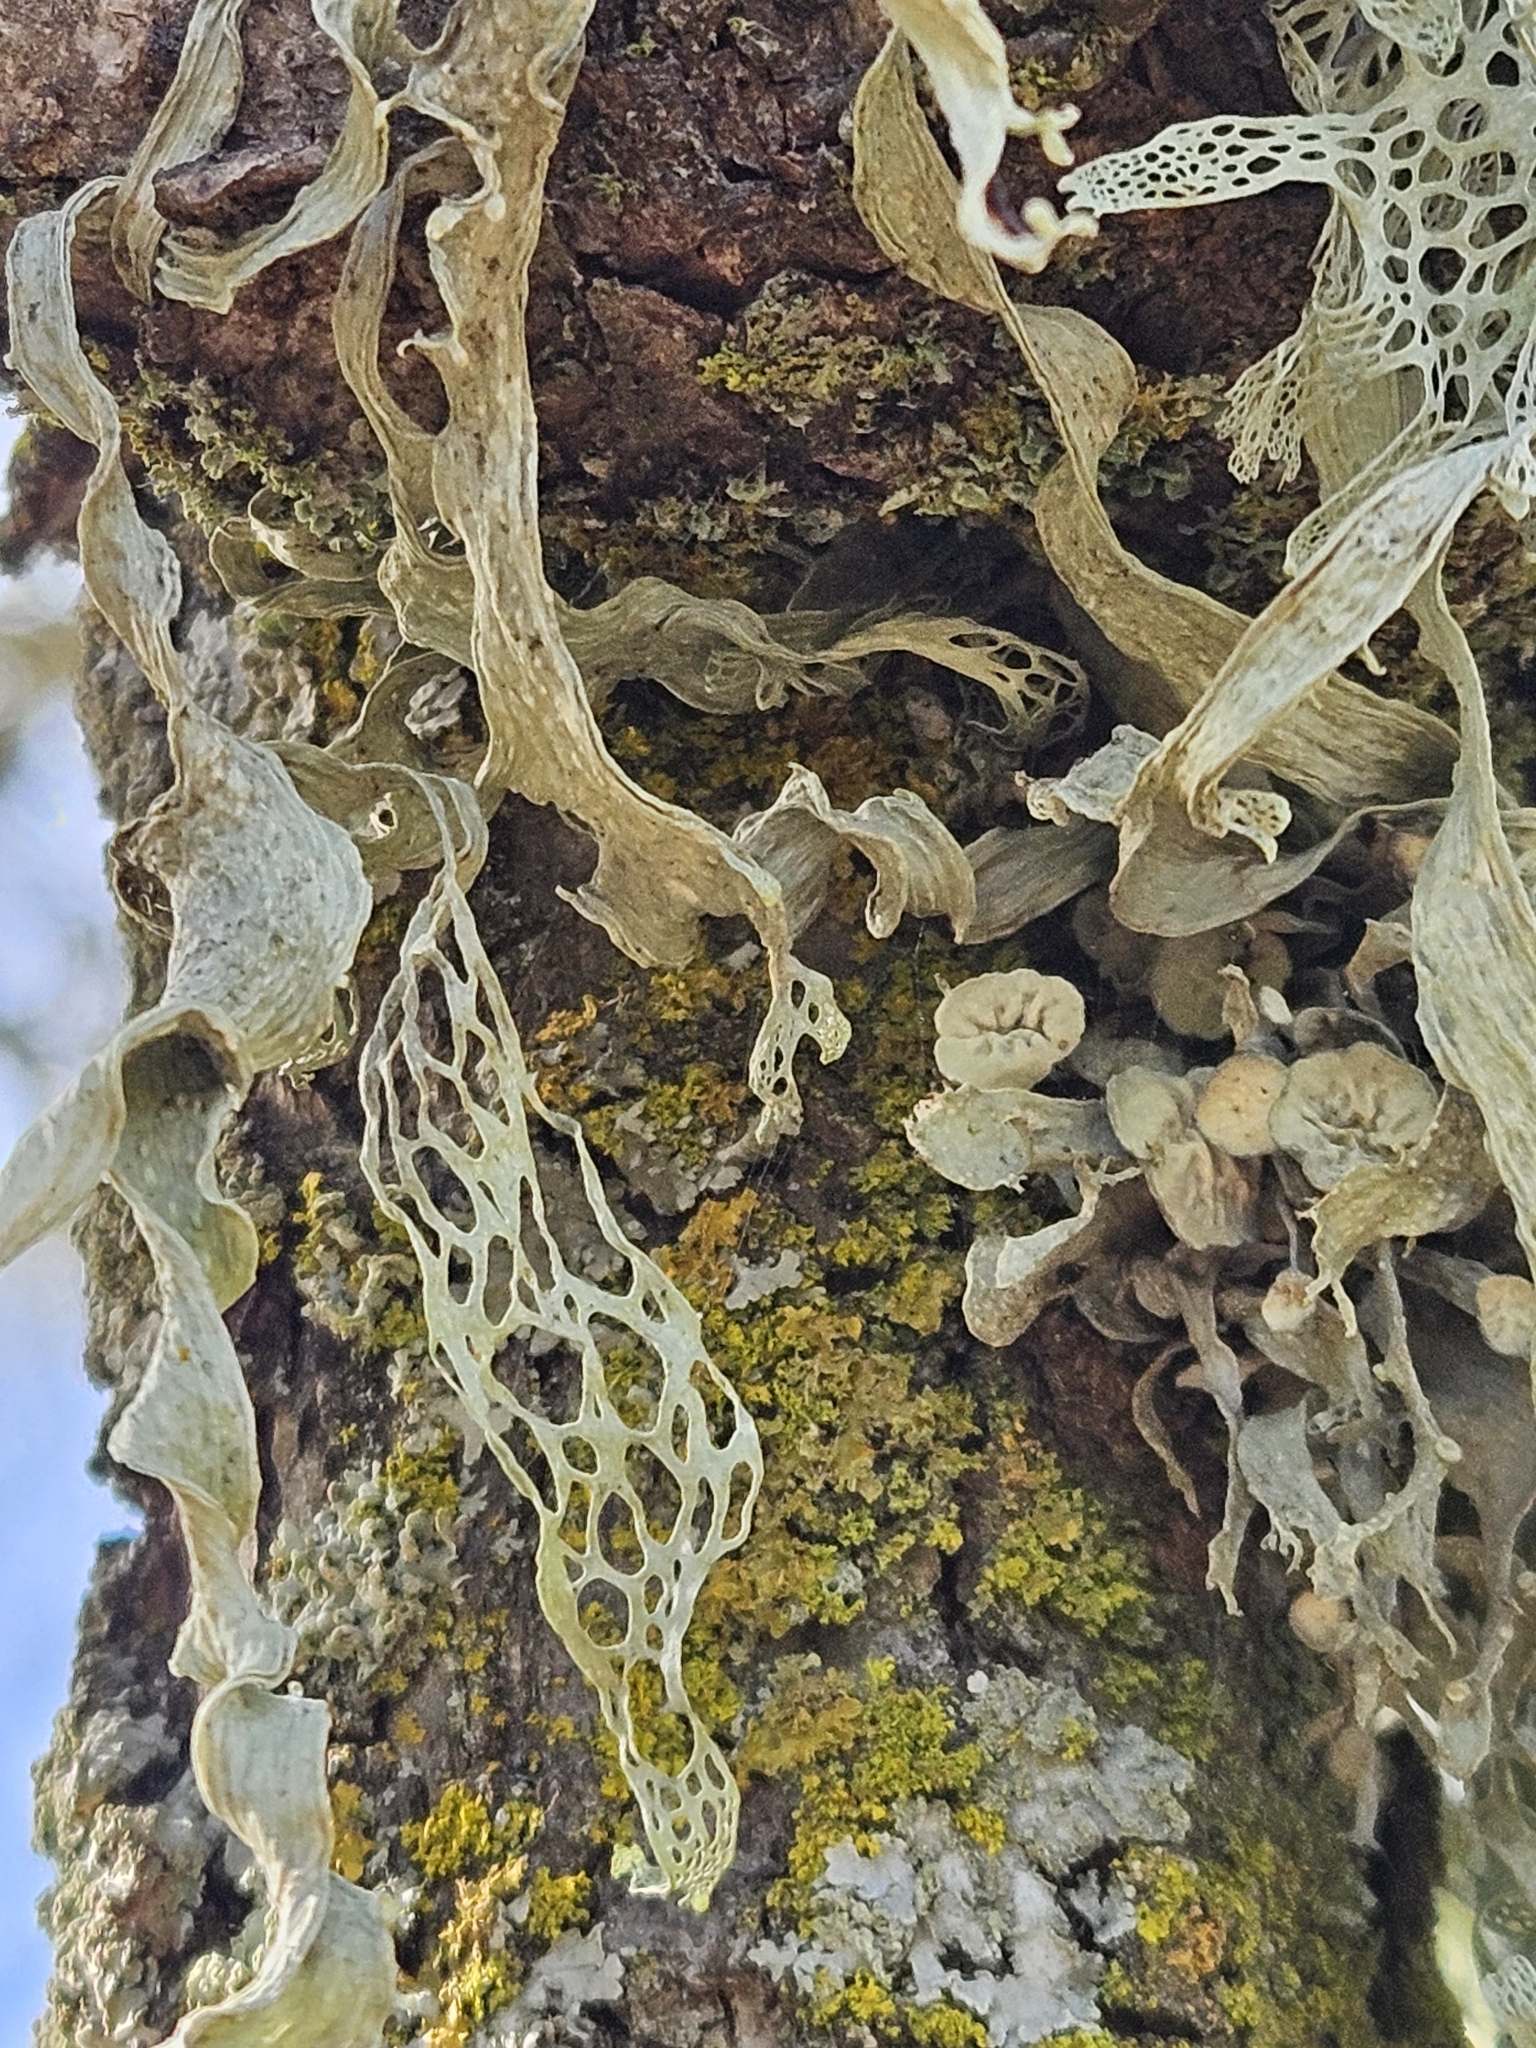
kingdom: Fungi
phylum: Ascomycota
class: Lecanoromycetes
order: Lecanorales
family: Ramalinaceae
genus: Ramalina
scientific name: Ramalina menziesii
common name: Lace lichen
